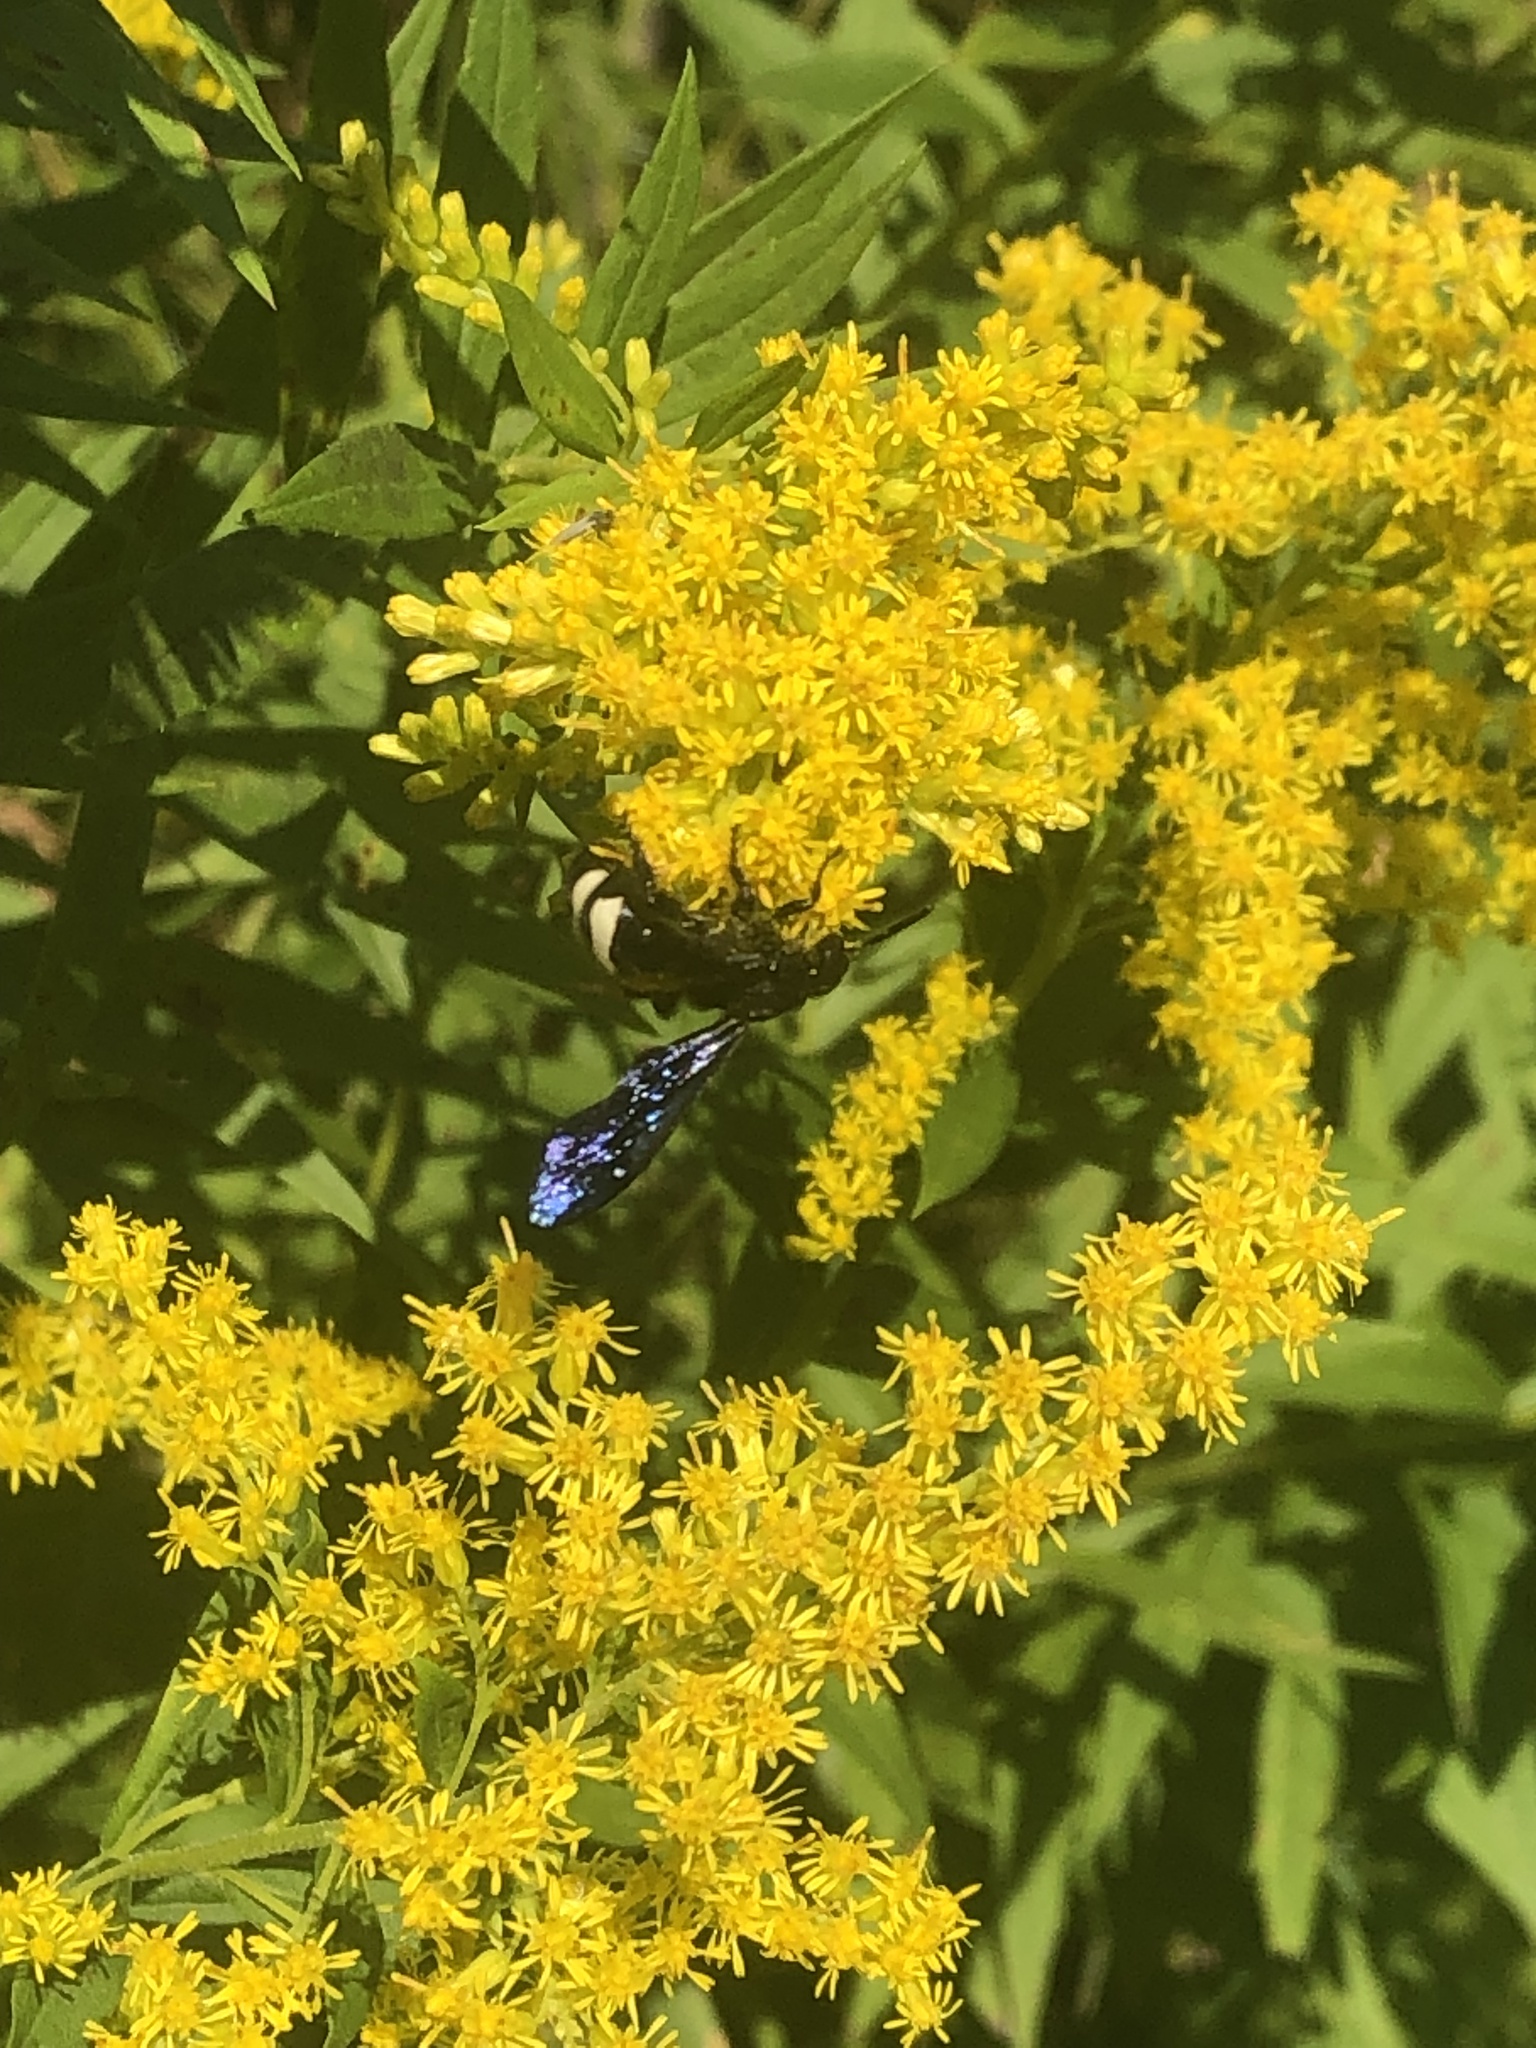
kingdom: Animalia
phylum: Arthropoda
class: Insecta
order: Hymenoptera
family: Scoliidae
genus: Scolia
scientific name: Scolia bicincta
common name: Double-banded scoliid wasp
